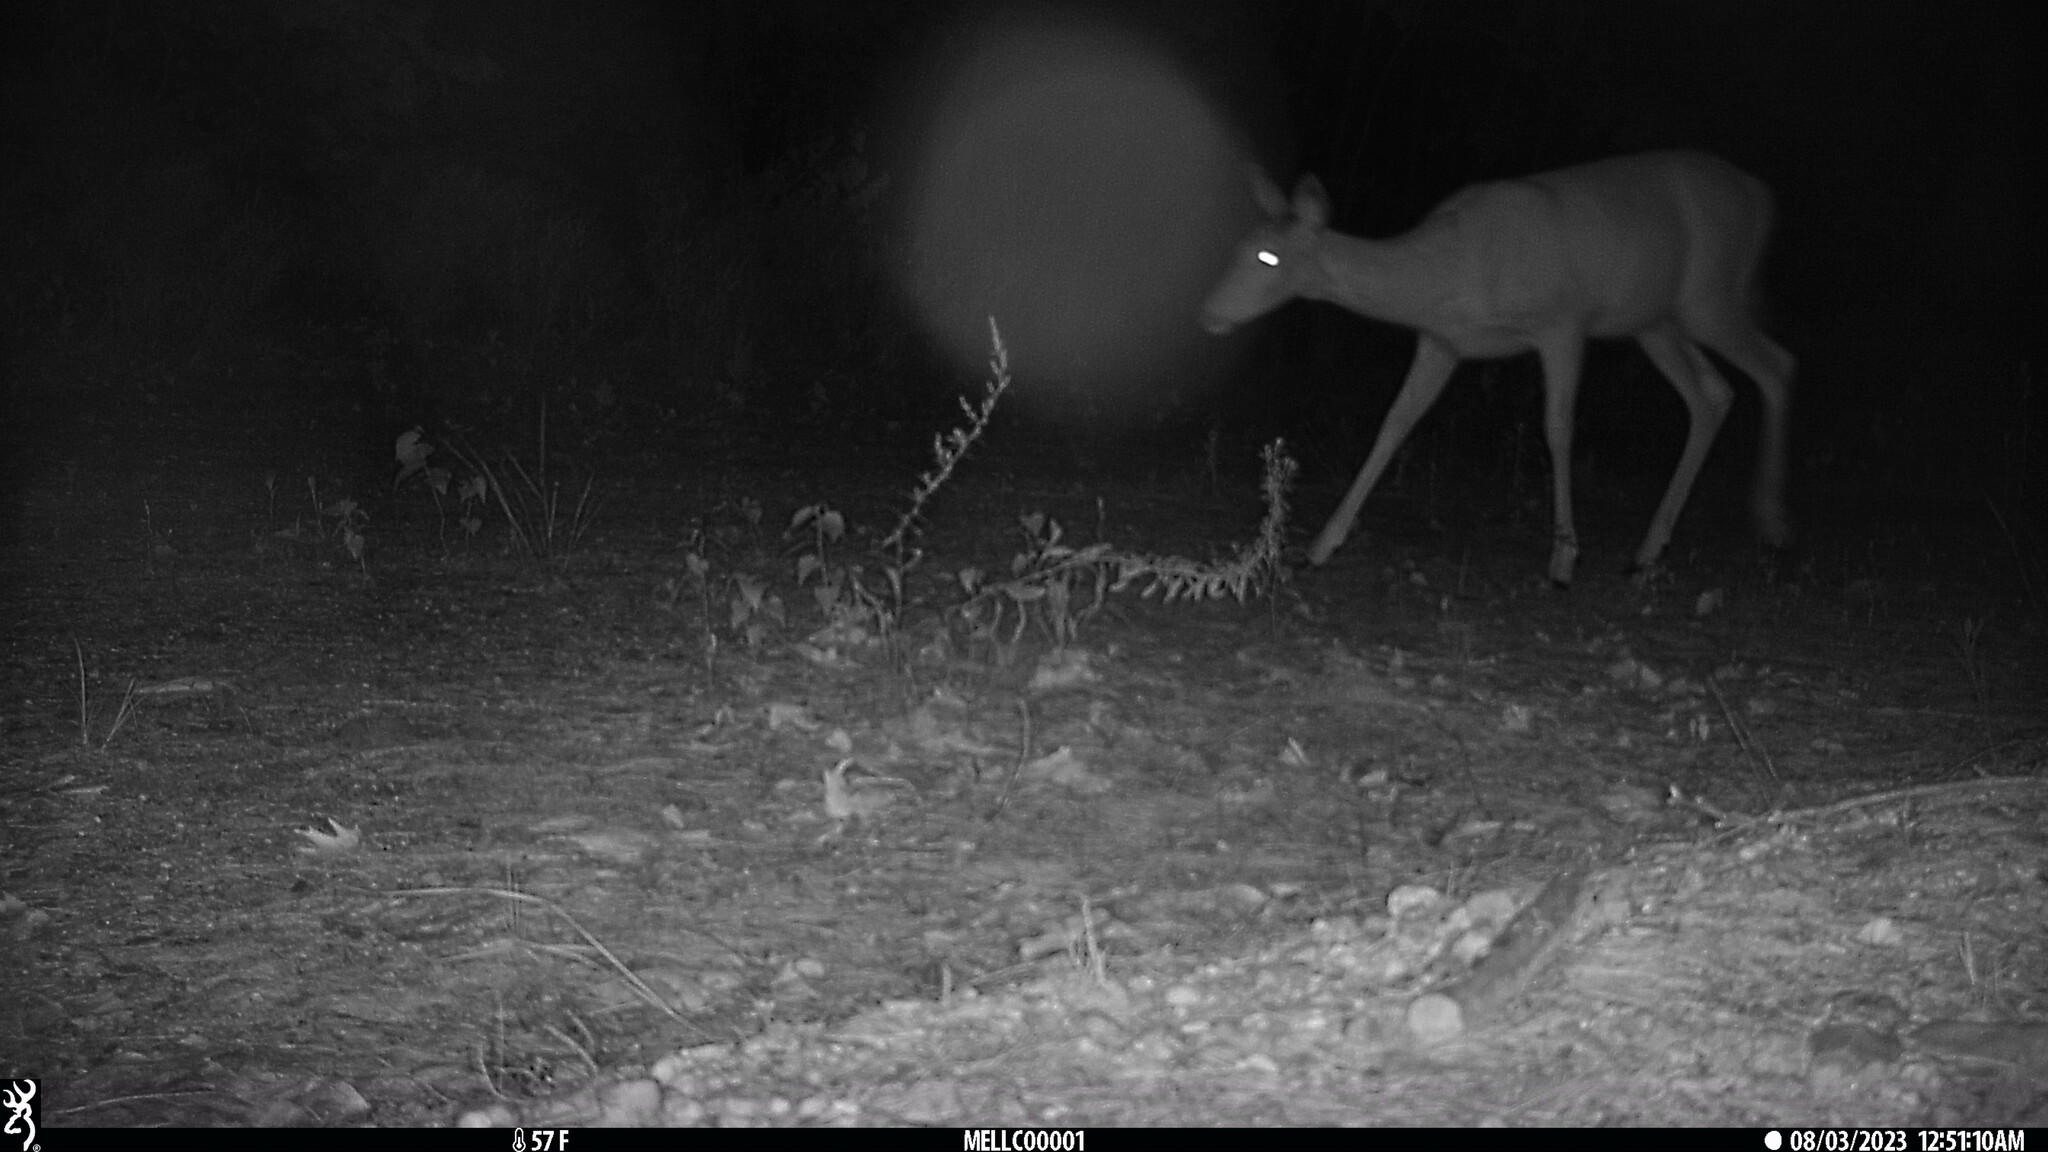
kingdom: Animalia
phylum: Chordata
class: Mammalia
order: Artiodactyla
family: Cervidae
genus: Odocoileus
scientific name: Odocoileus virginianus
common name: White-tailed deer
